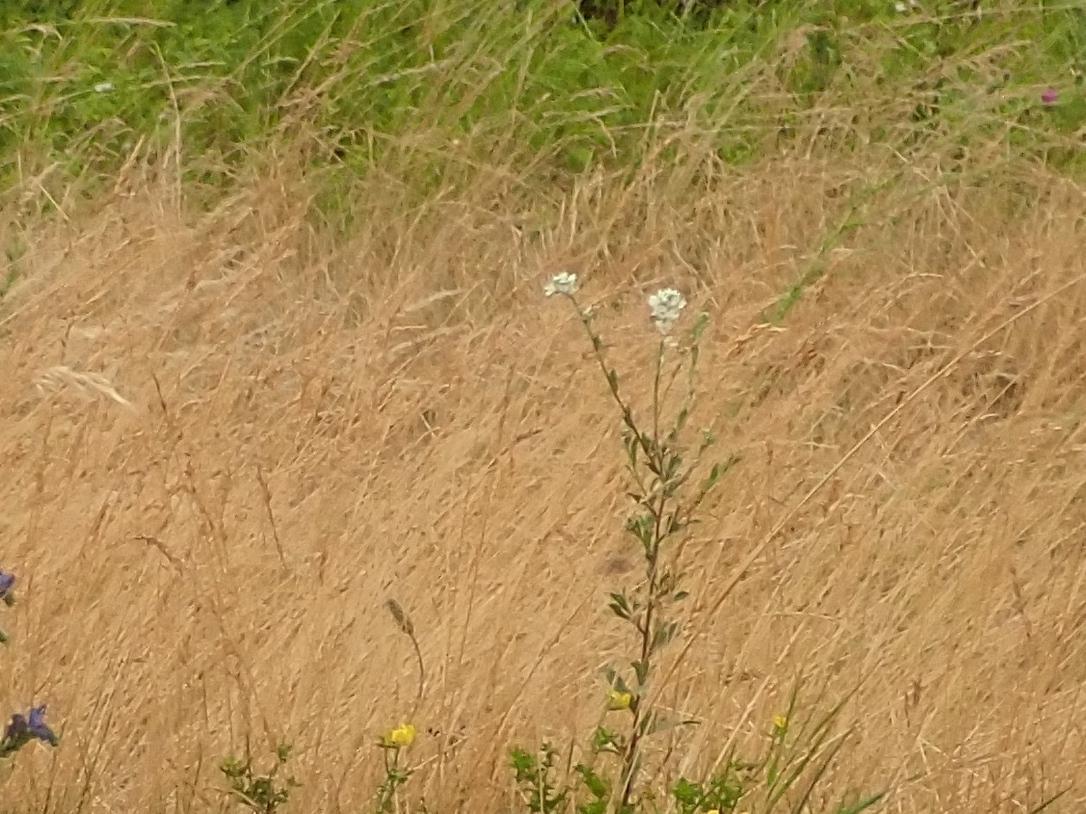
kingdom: Plantae
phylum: Tracheophyta
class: Magnoliopsida
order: Brassicales
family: Brassicaceae
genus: Berteroa
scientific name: Berteroa incana
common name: Hoary alison
